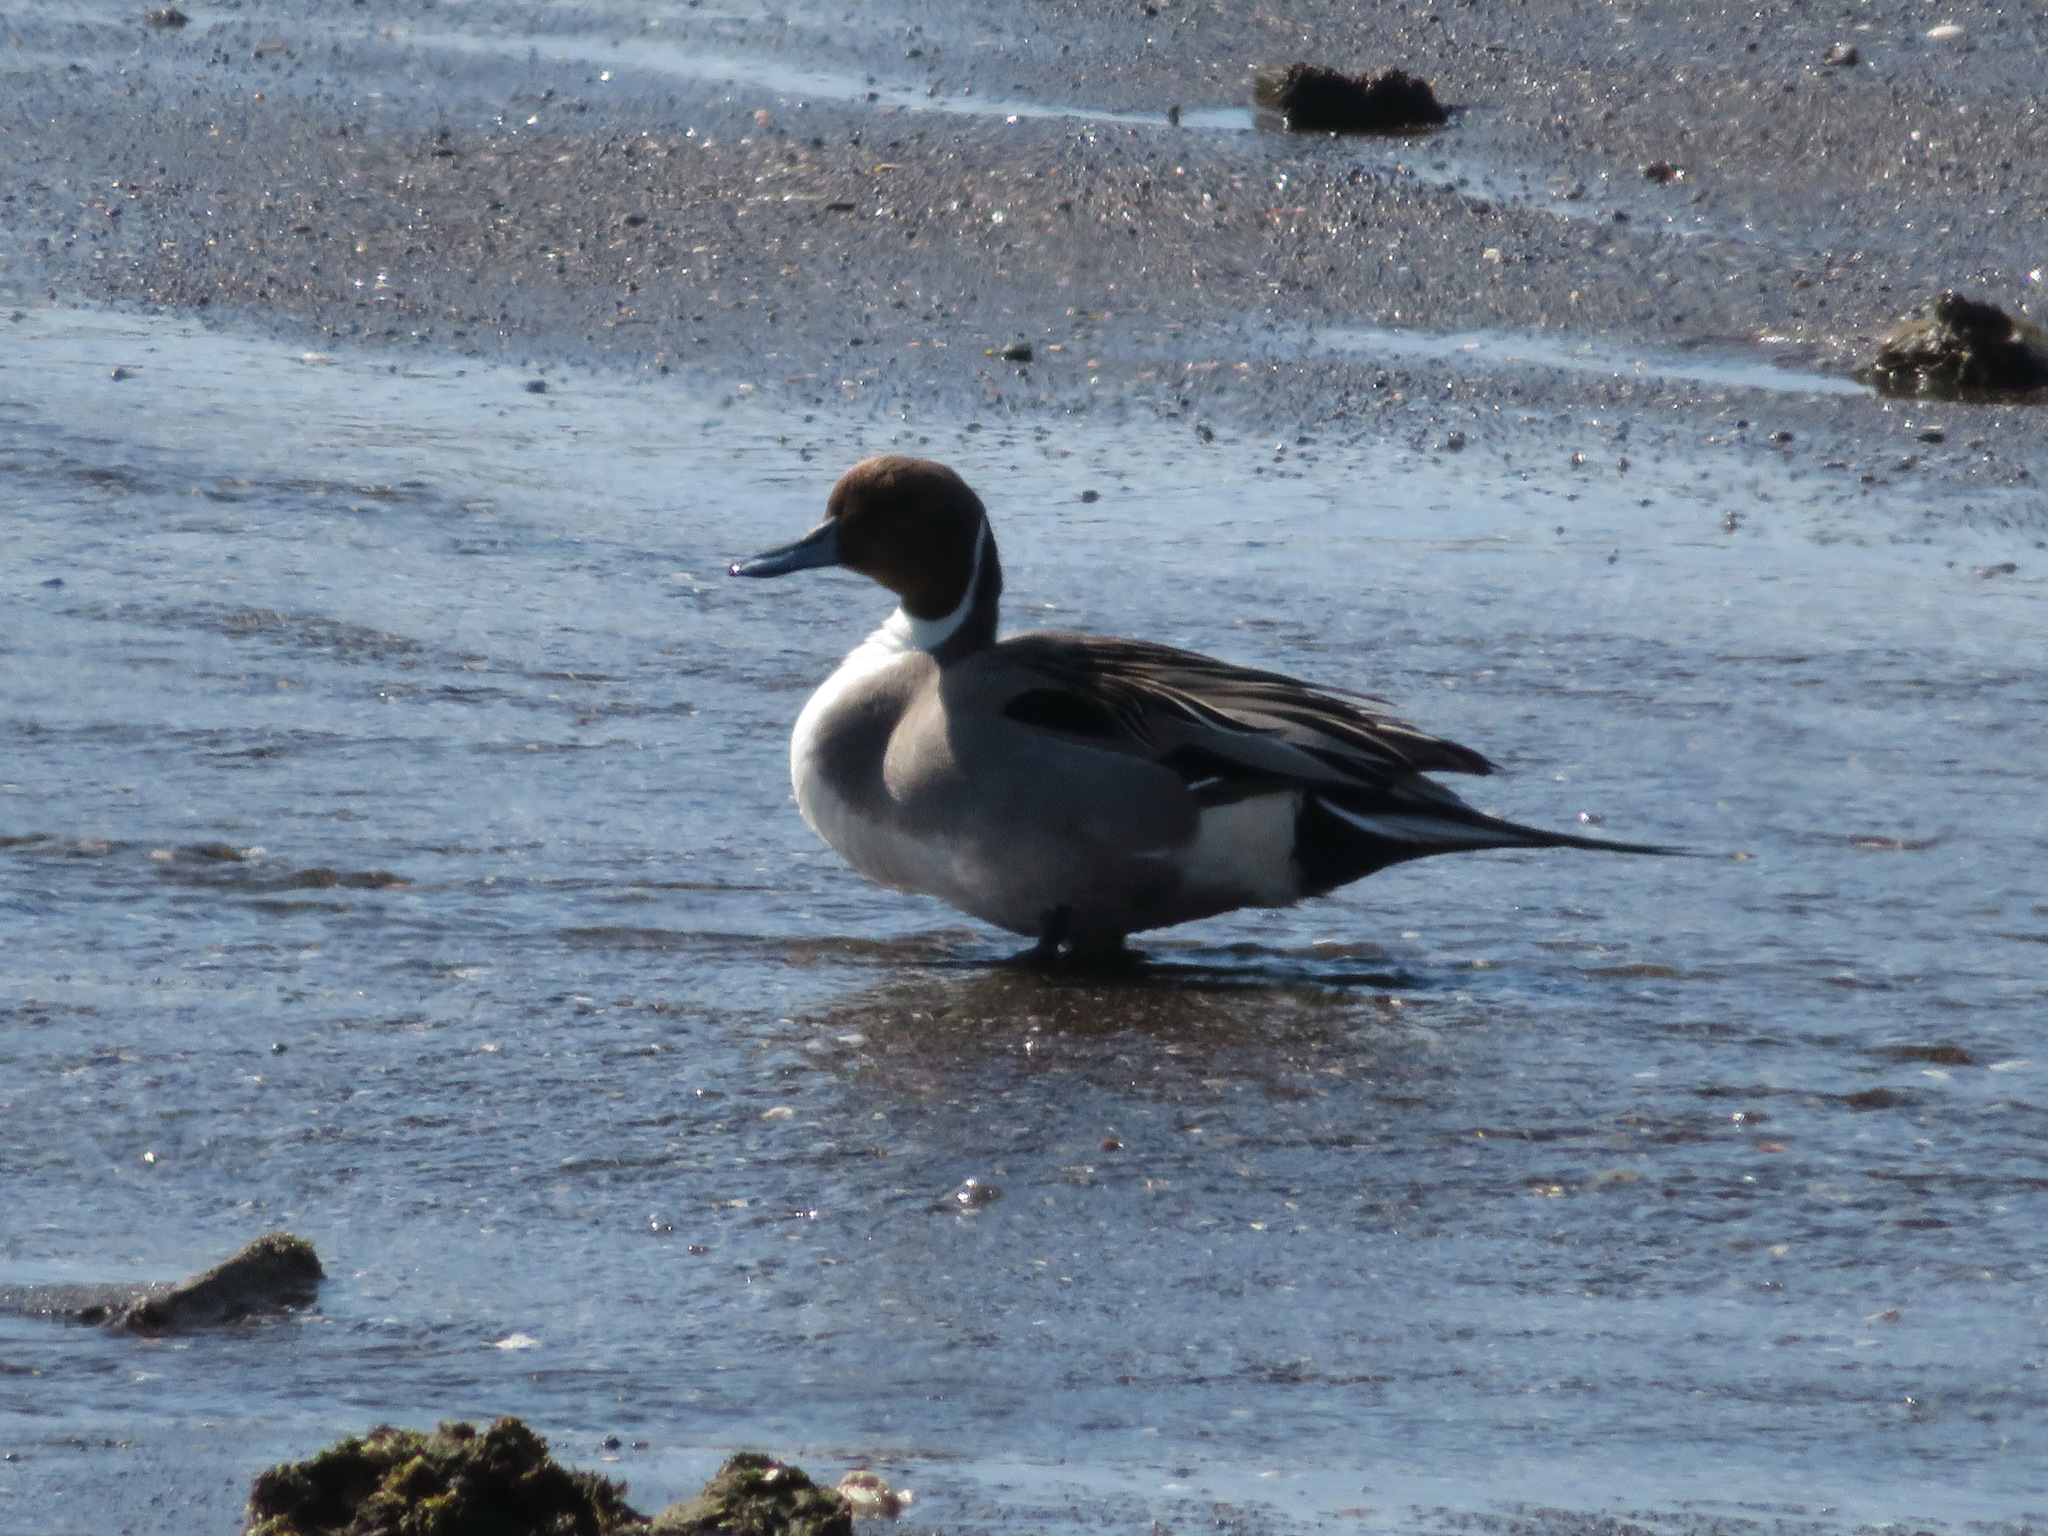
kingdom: Animalia
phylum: Chordata
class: Aves
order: Anseriformes
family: Anatidae
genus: Anas
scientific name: Anas acuta
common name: Northern pintail
